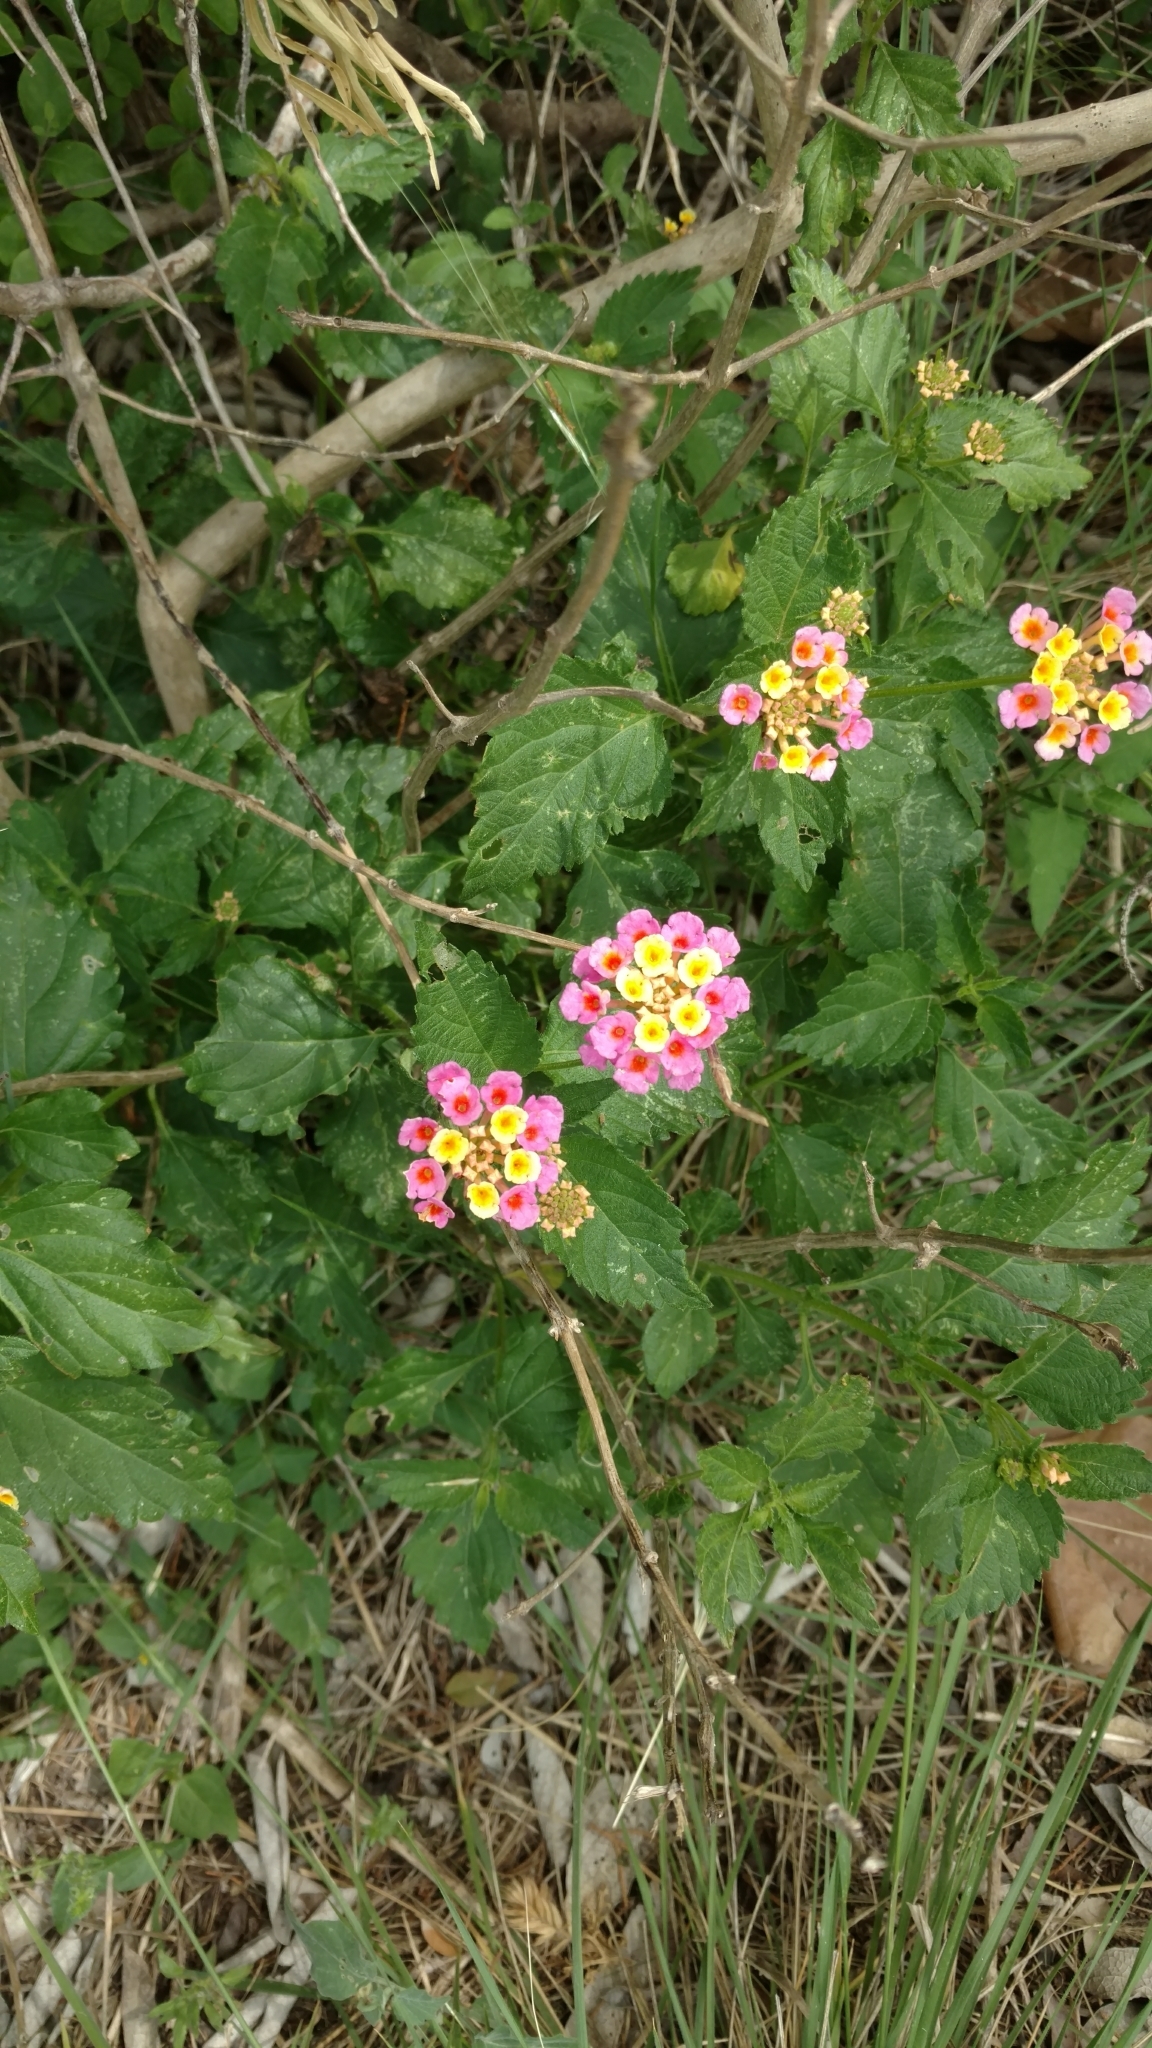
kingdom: Plantae
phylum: Tracheophyta
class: Magnoliopsida
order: Lamiales
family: Verbenaceae
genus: Lantana
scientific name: Lantana strigocamara
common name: Lantana
